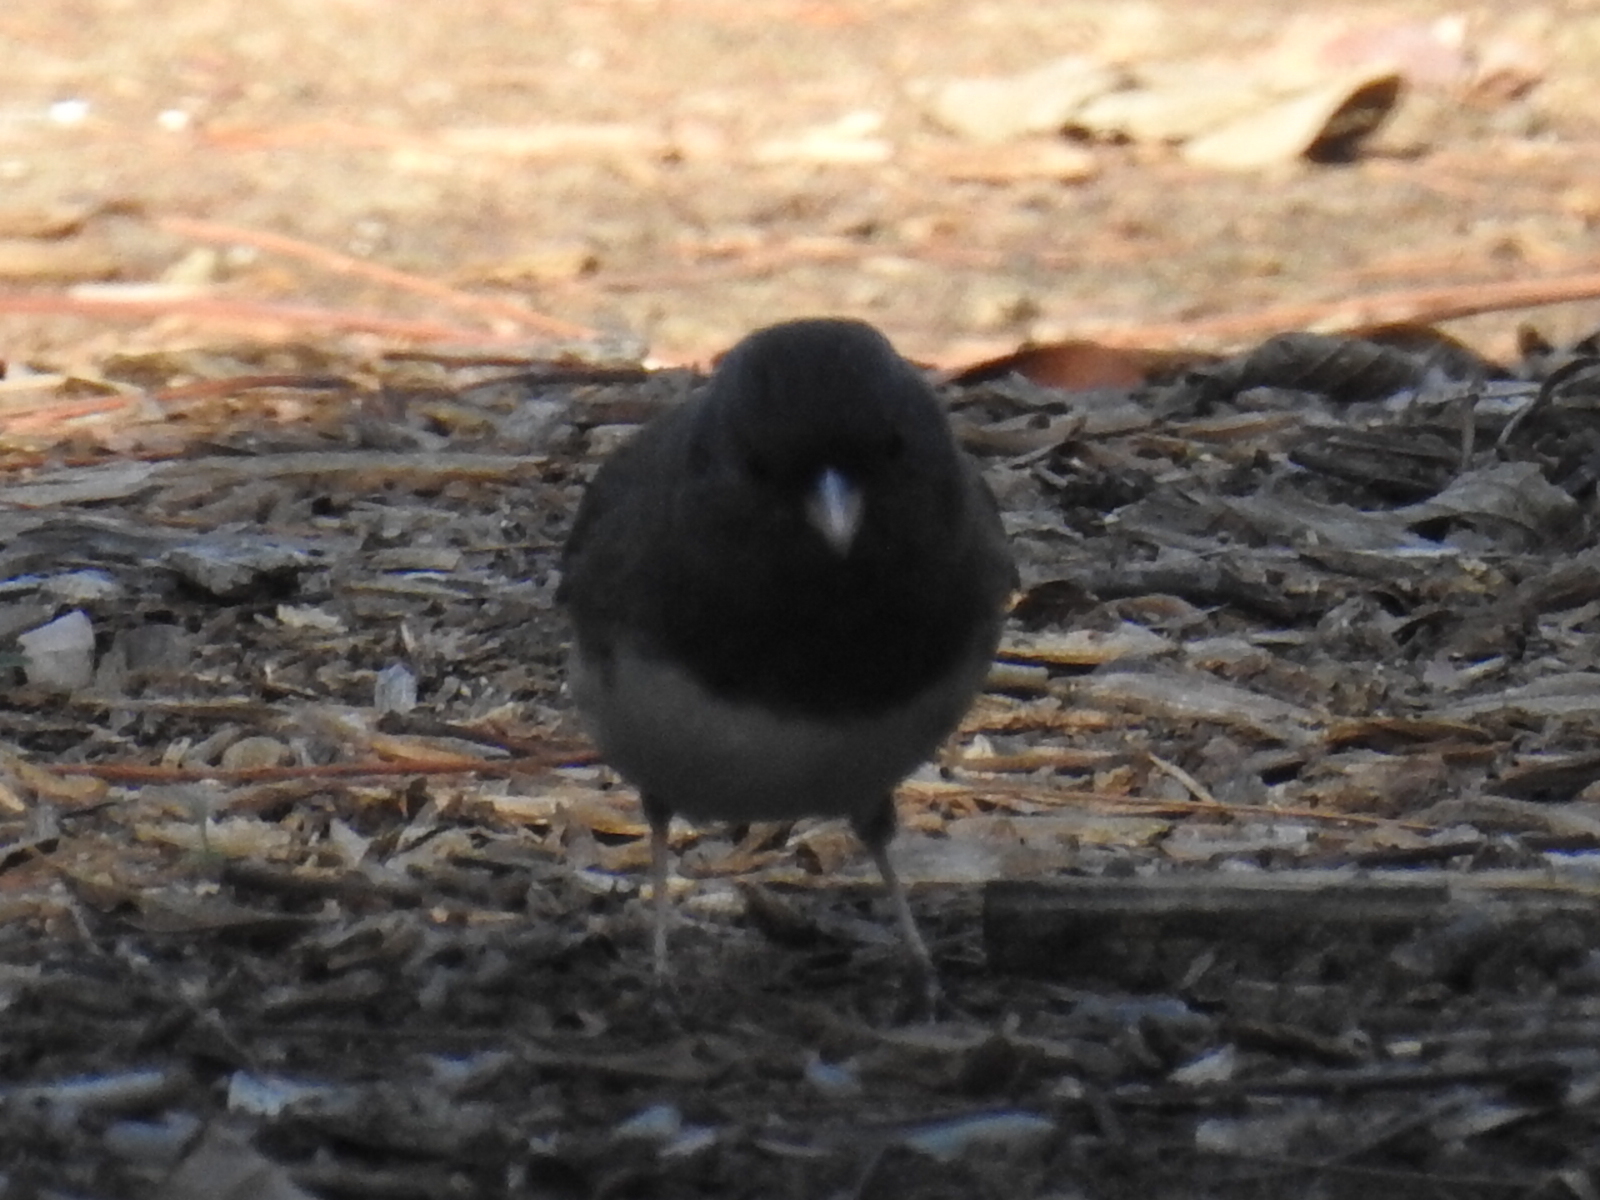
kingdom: Animalia
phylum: Chordata
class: Aves
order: Passeriformes
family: Passerellidae
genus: Junco
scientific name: Junco hyemalis
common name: Dark-eyed junco
